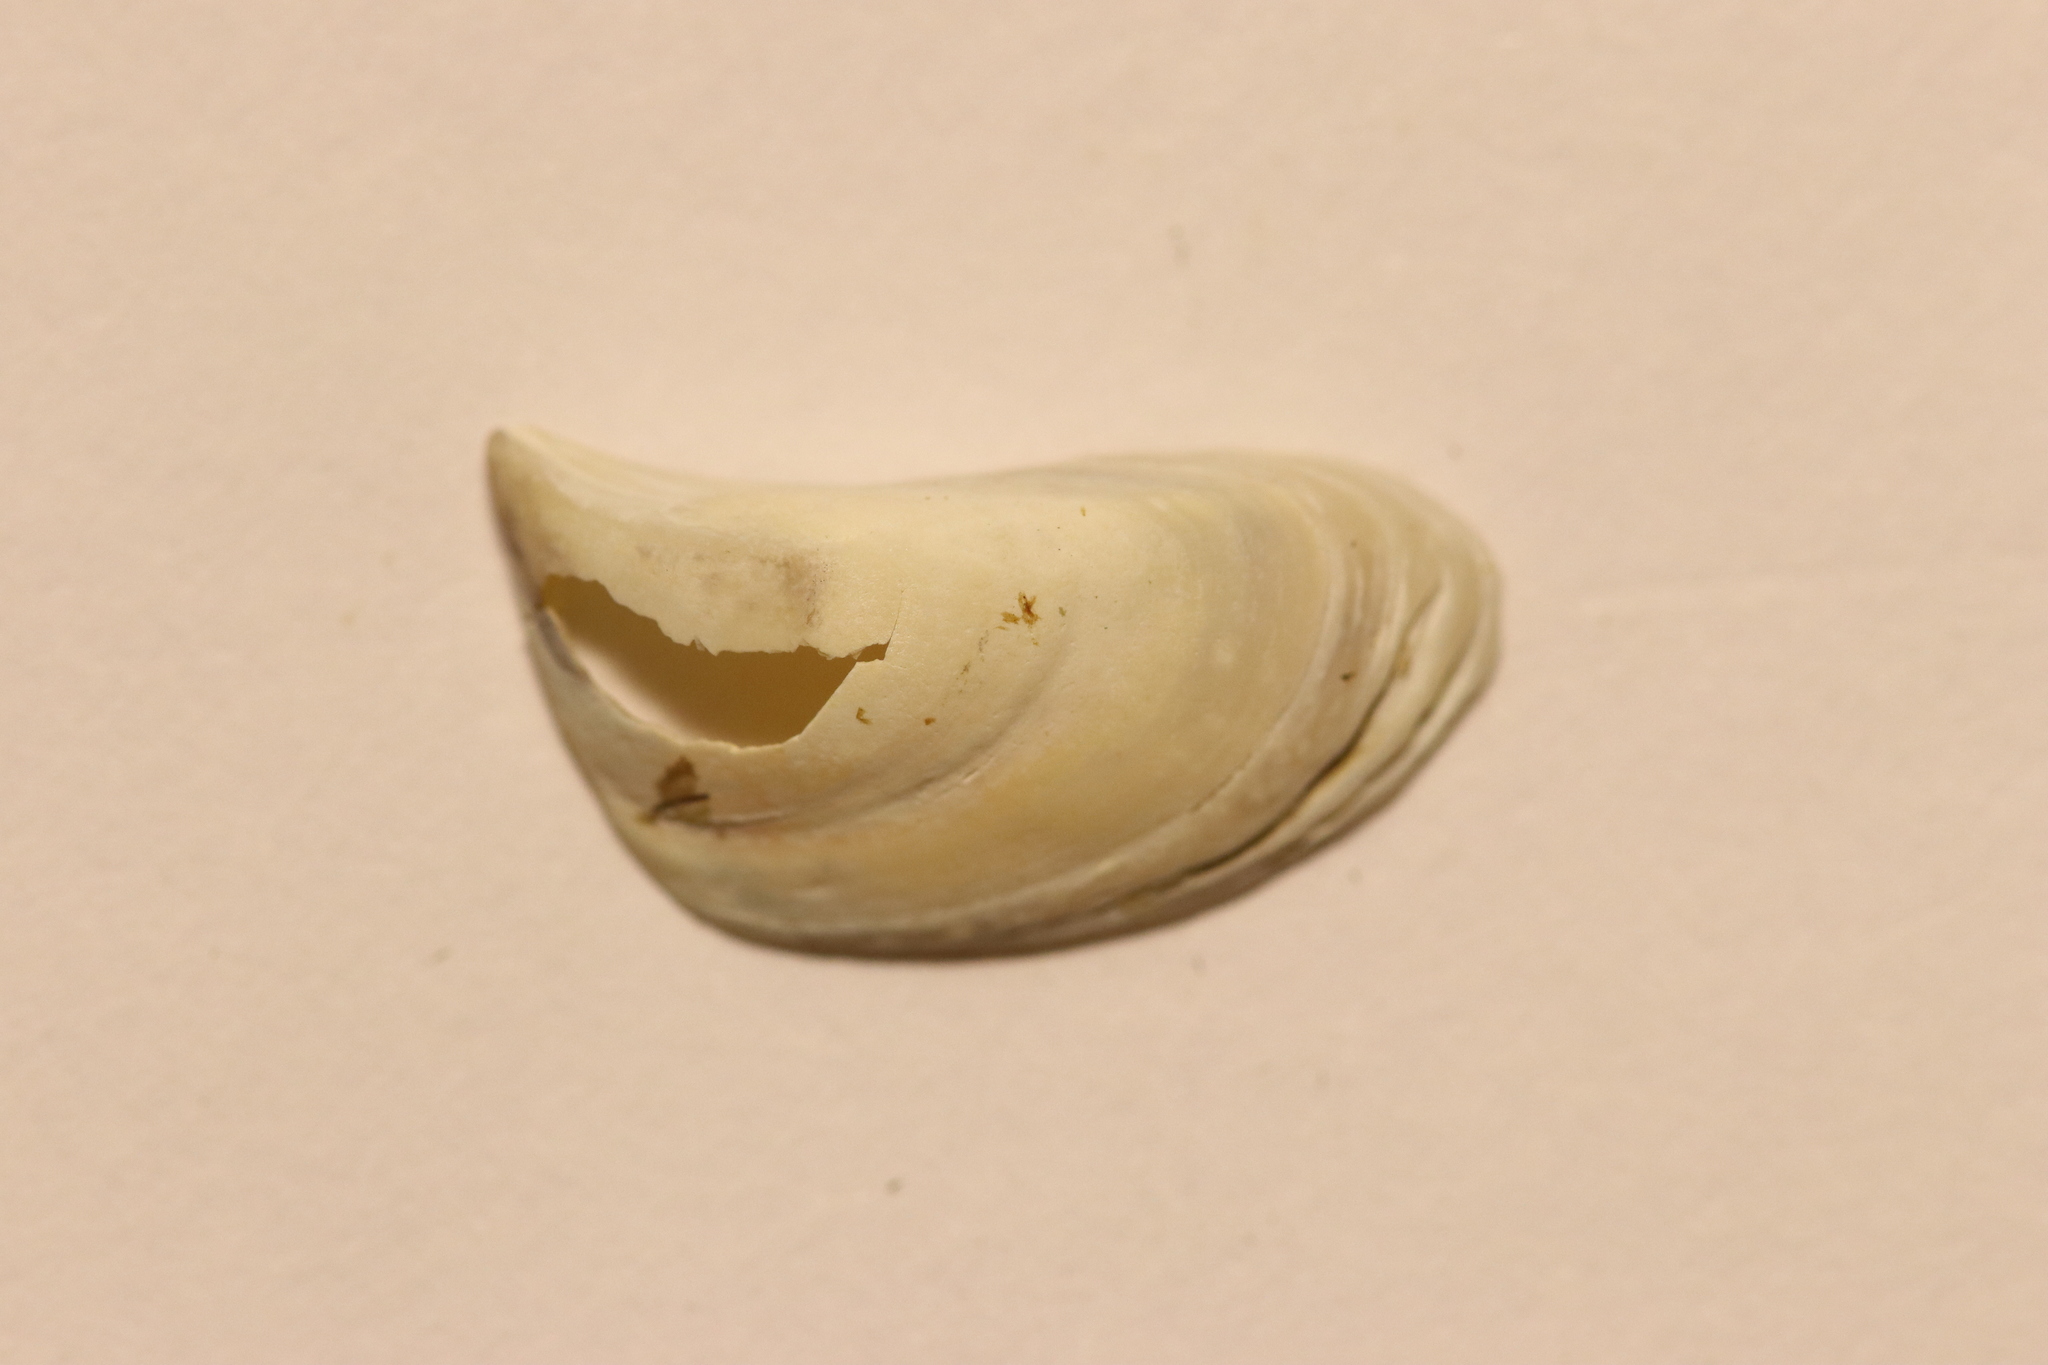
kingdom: Animalia
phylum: Mollusca
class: Bivalvia
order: Myida
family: Dreissenidae
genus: Dreissena
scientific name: Dreissena polymorpha
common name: Zebra mussel
